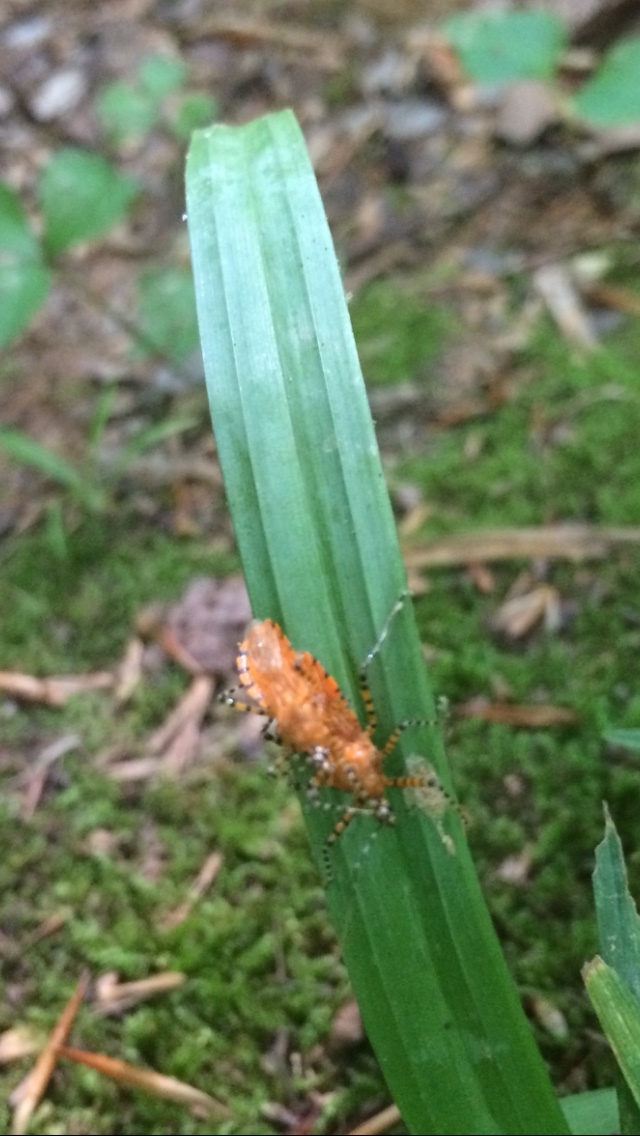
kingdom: Animalia
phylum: Arthropoda
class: Insecta
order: Hemiptera
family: Reduviidae
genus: Pselliopus
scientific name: Pselliopus barberi
